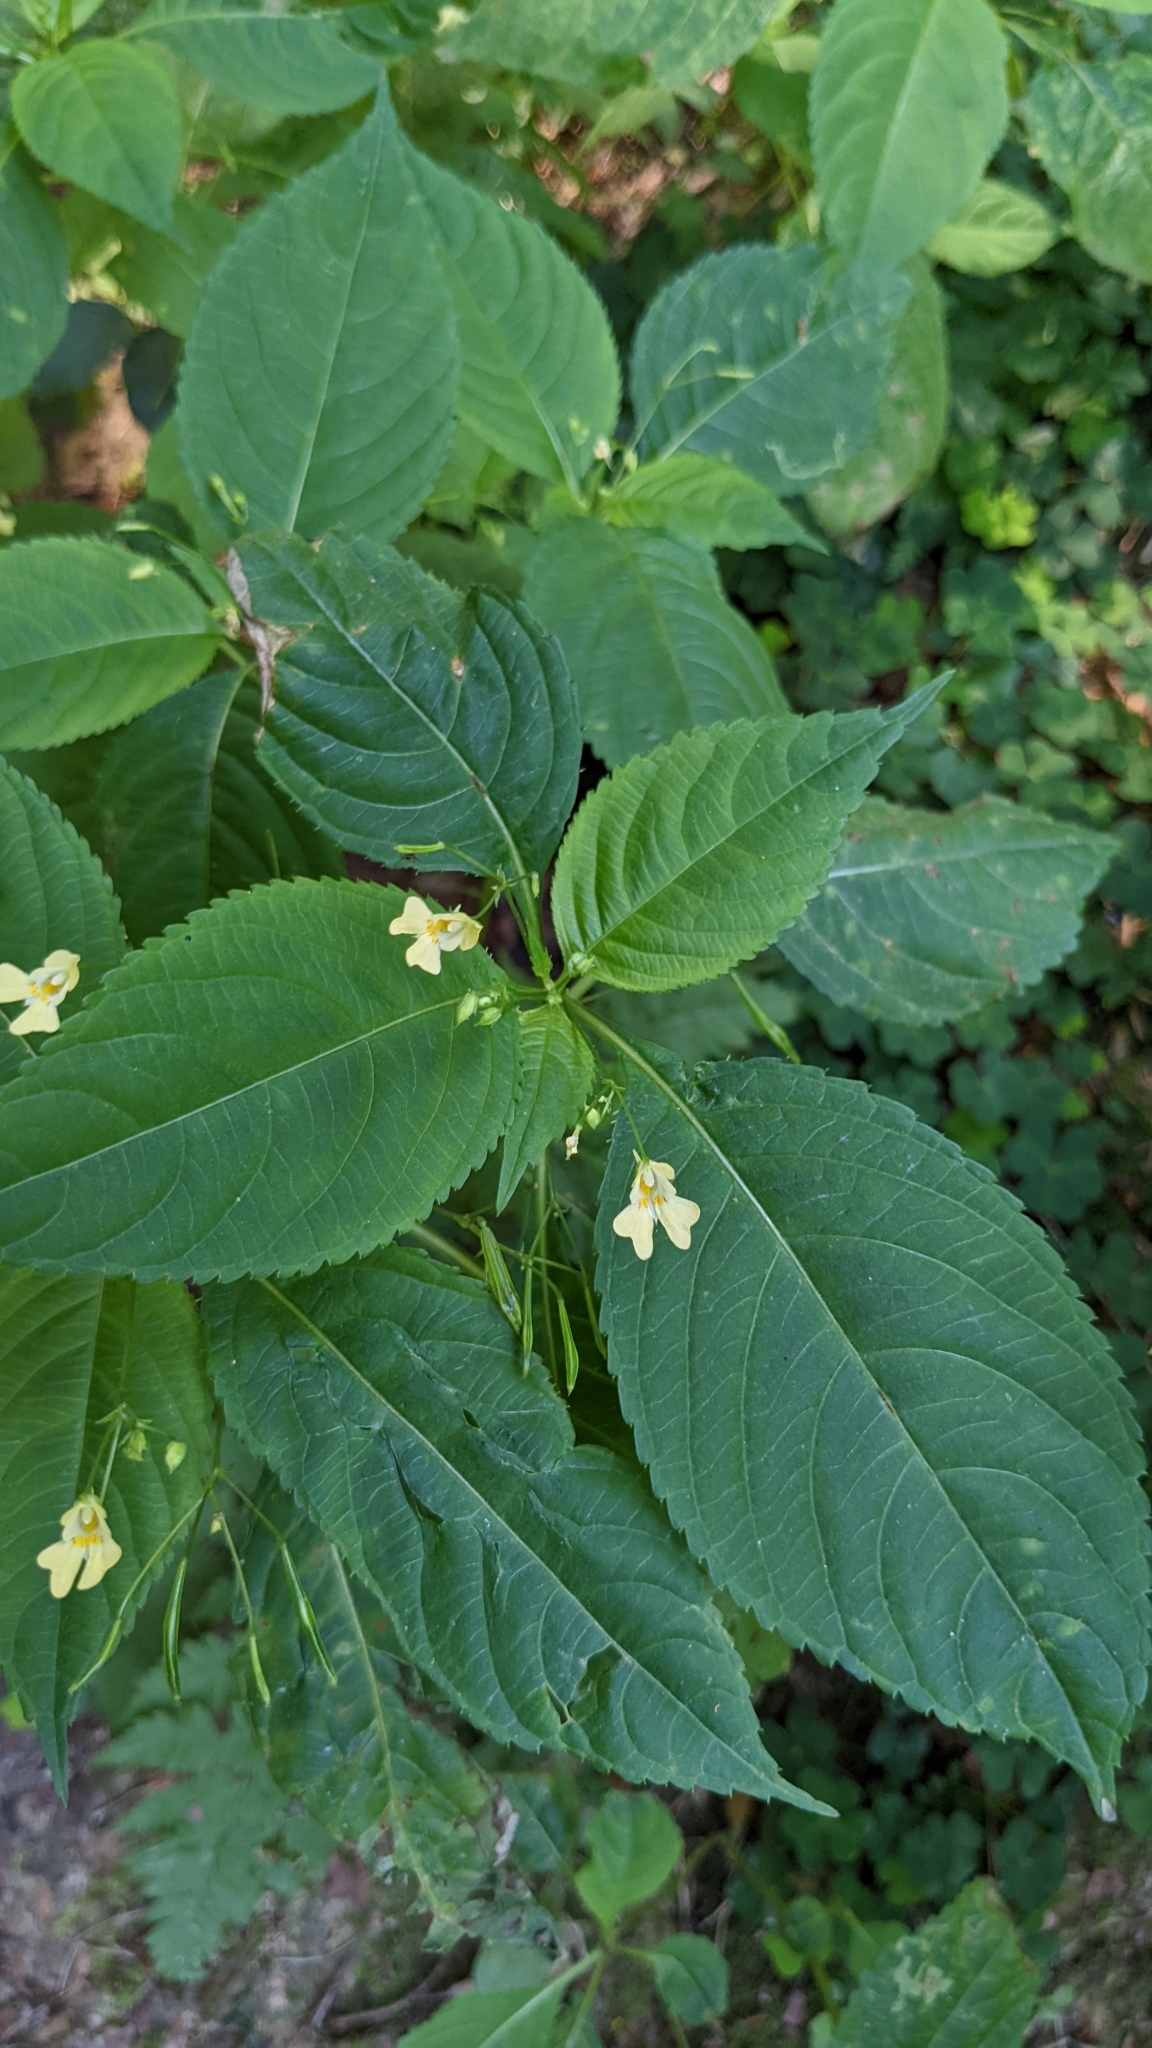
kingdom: Plantae
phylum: Tracheophyta
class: Magnoliopsida
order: Ericales
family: Balsaminaceae
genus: Impatiens
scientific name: Impatiens parviflora
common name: Small balsam
